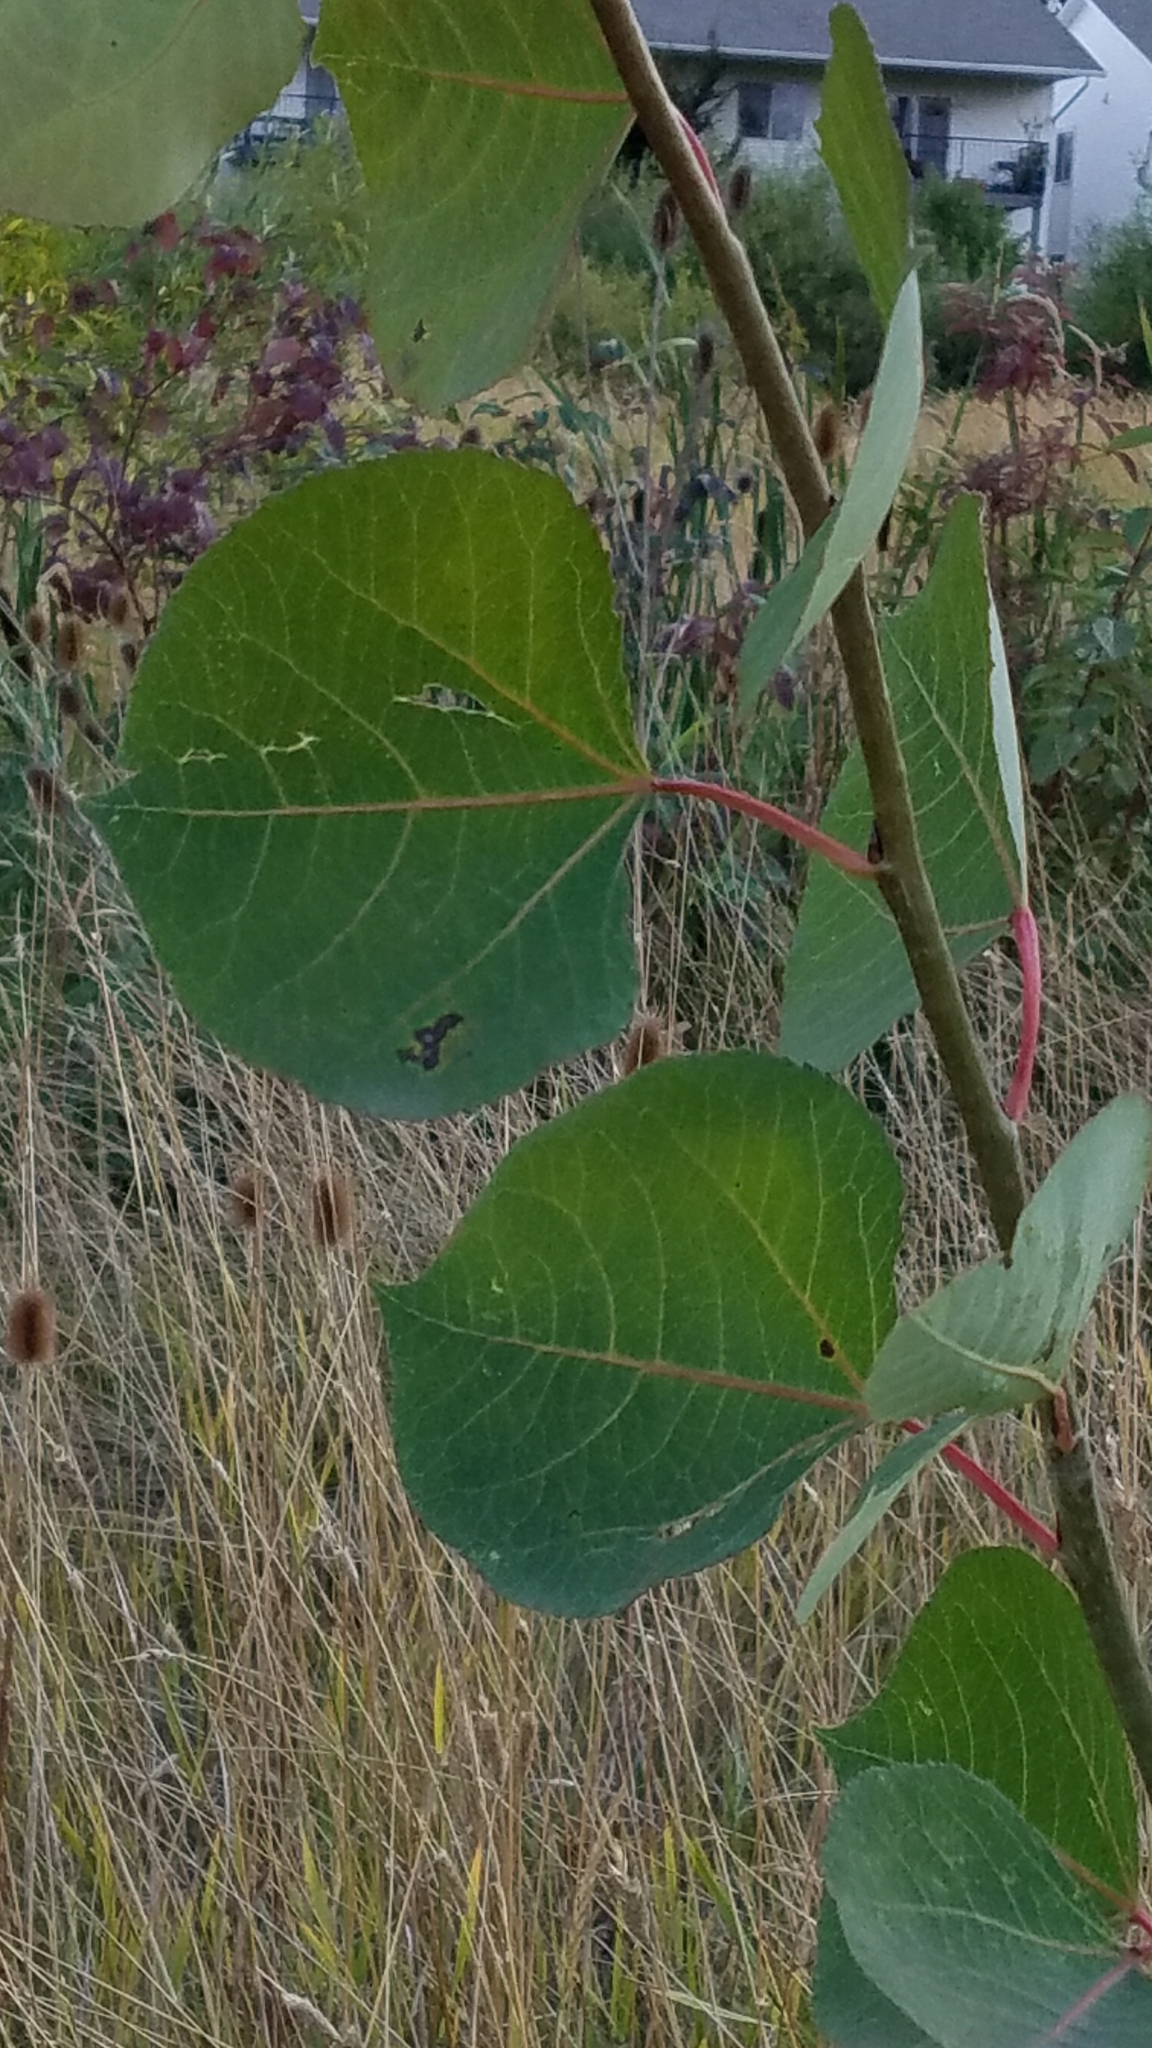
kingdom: Plantae
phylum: Tracheophyta
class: Magnoliopsida
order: Malpighiales
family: Salicaceae
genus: Populus
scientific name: Populus tremuloides
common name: Quaking aspen
